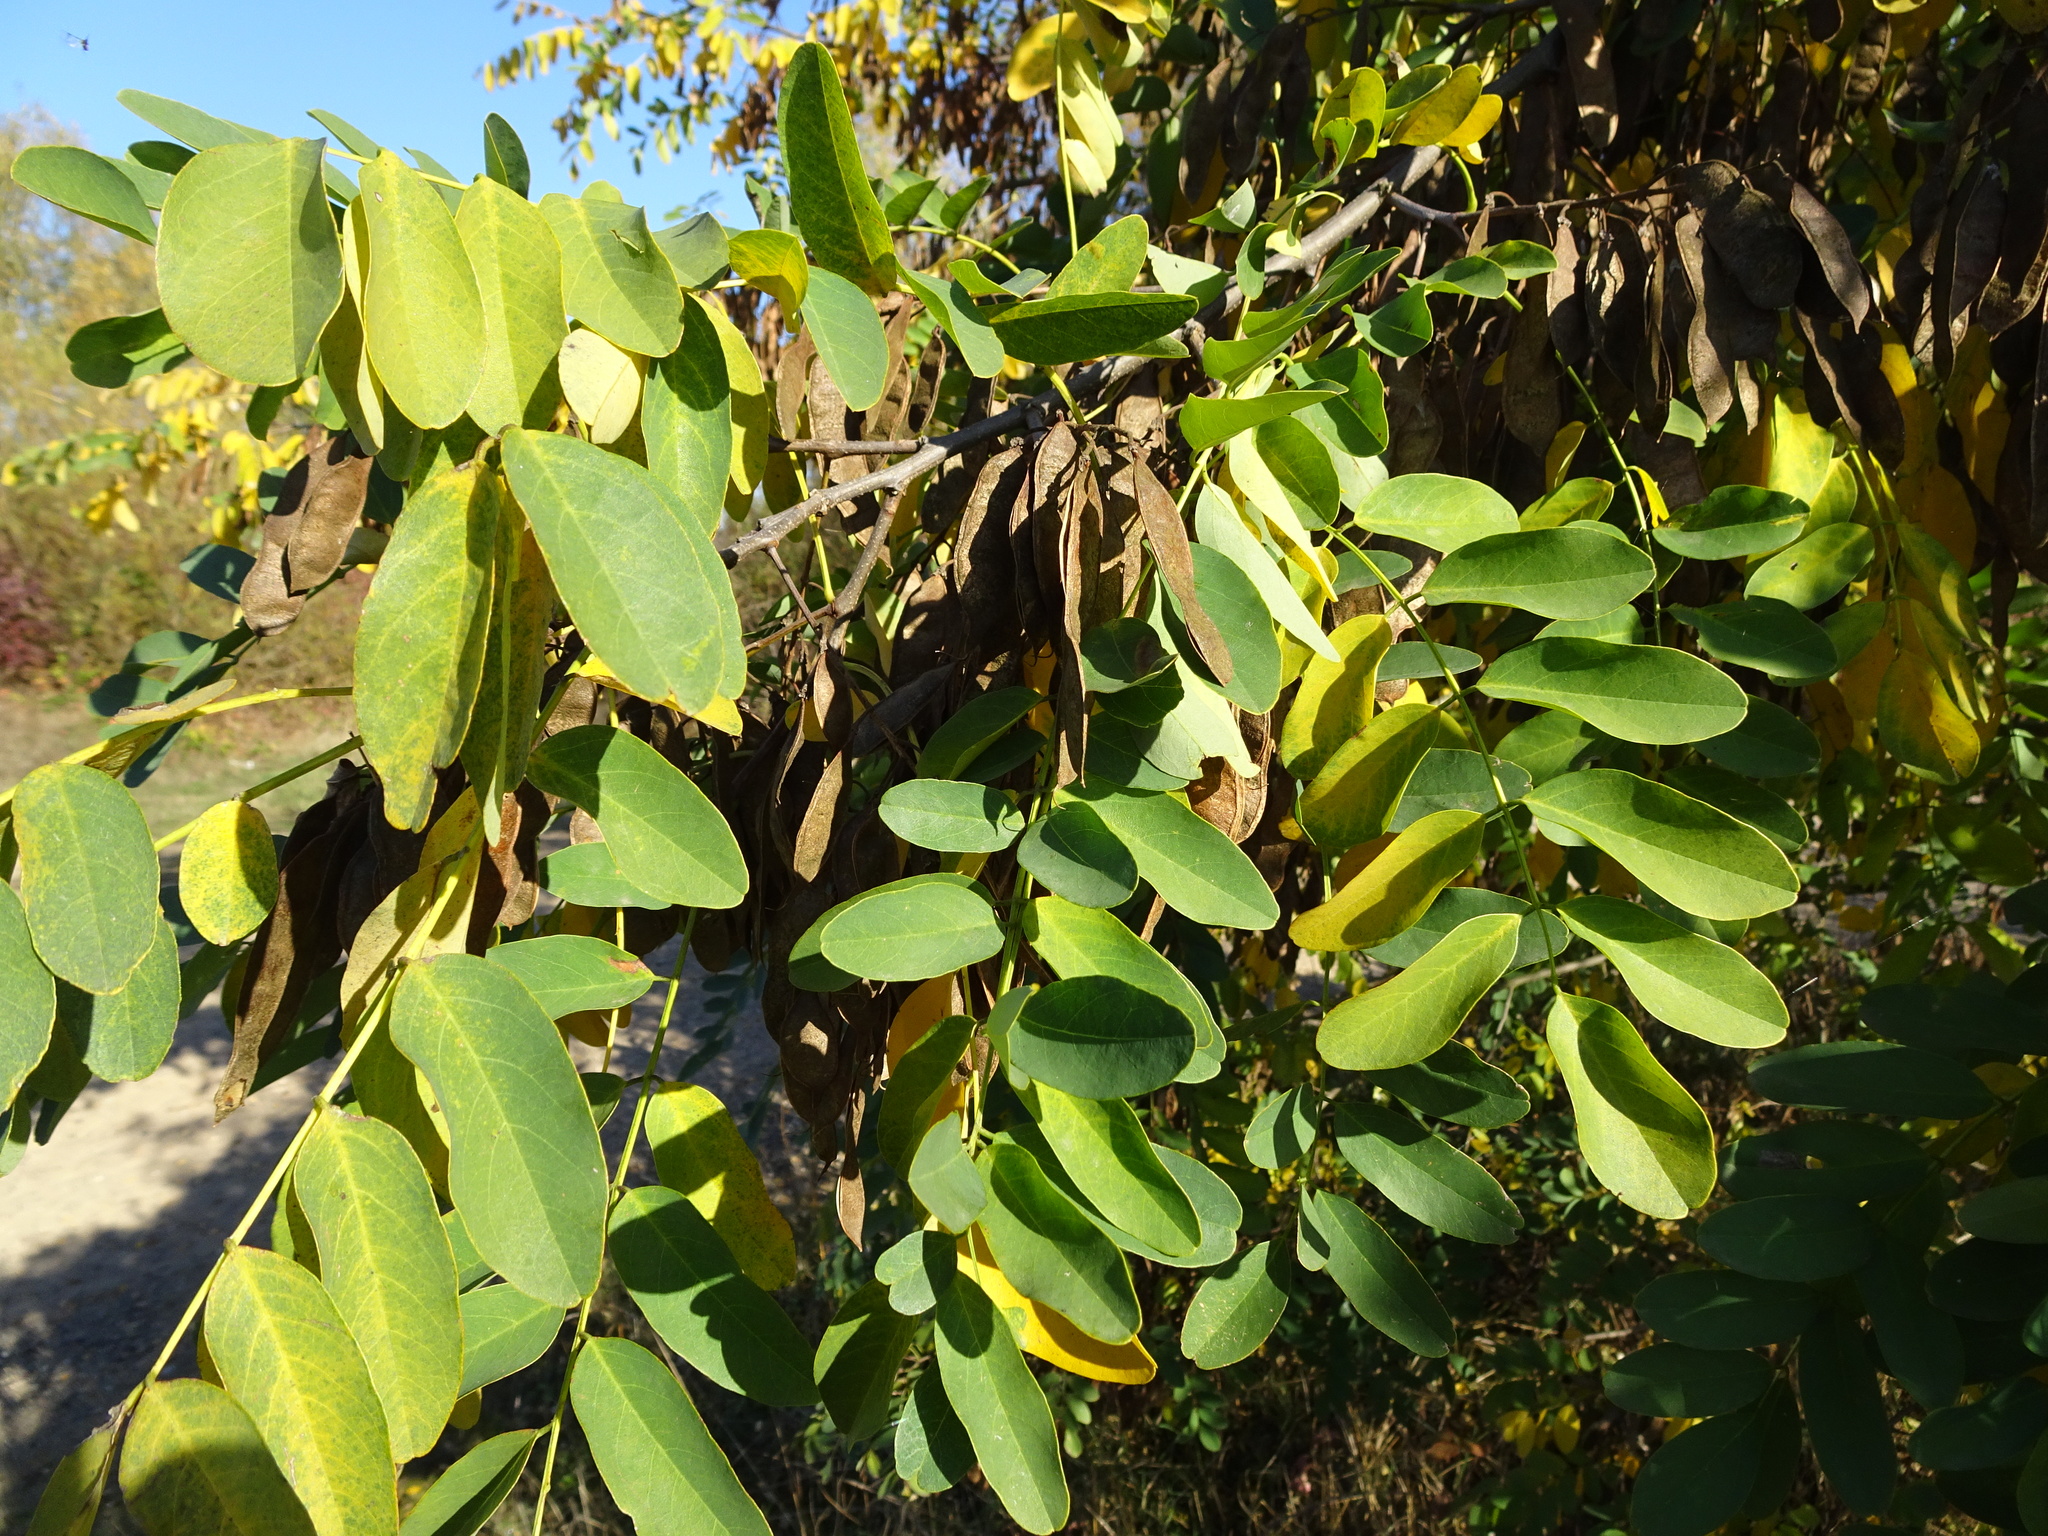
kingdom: Plantae
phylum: Tracheophyta
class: Magnoliopsida
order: Fabales
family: Fabaceae
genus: Robinia
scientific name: Robinia pseudoacacia
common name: Black locust
